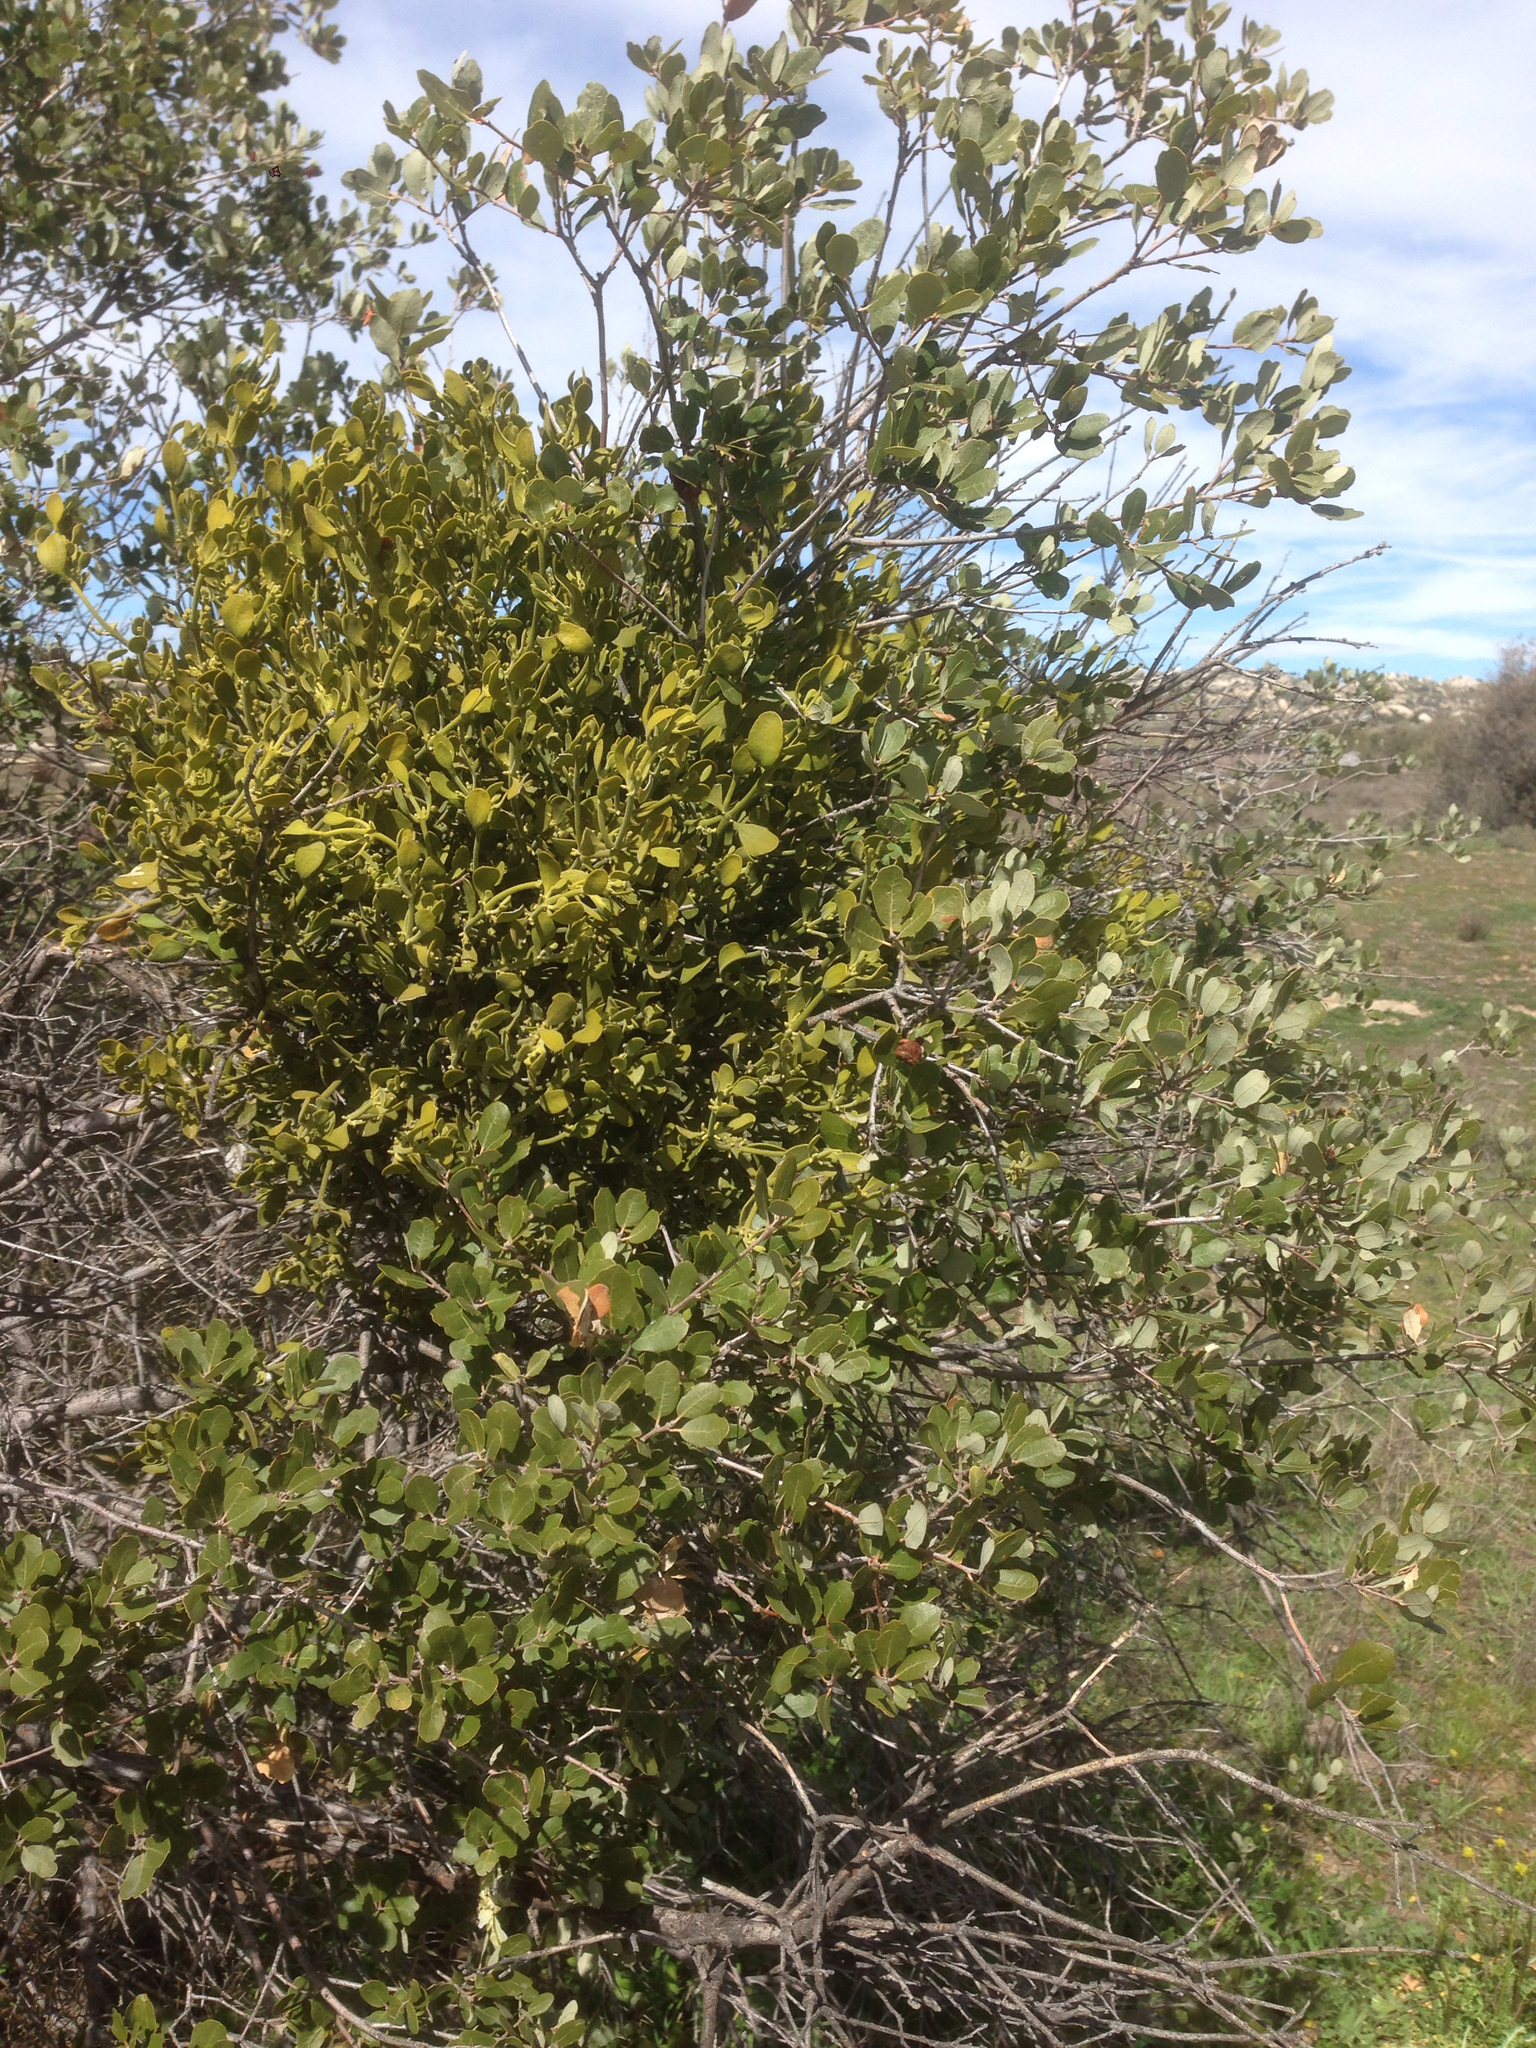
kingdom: Plantae
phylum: Tracheophyta
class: Magnoliopsida
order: Santalales
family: Viscaceae
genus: Phoradendron
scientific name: Phoradendron leucarpum
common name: Pacific mistletoe
